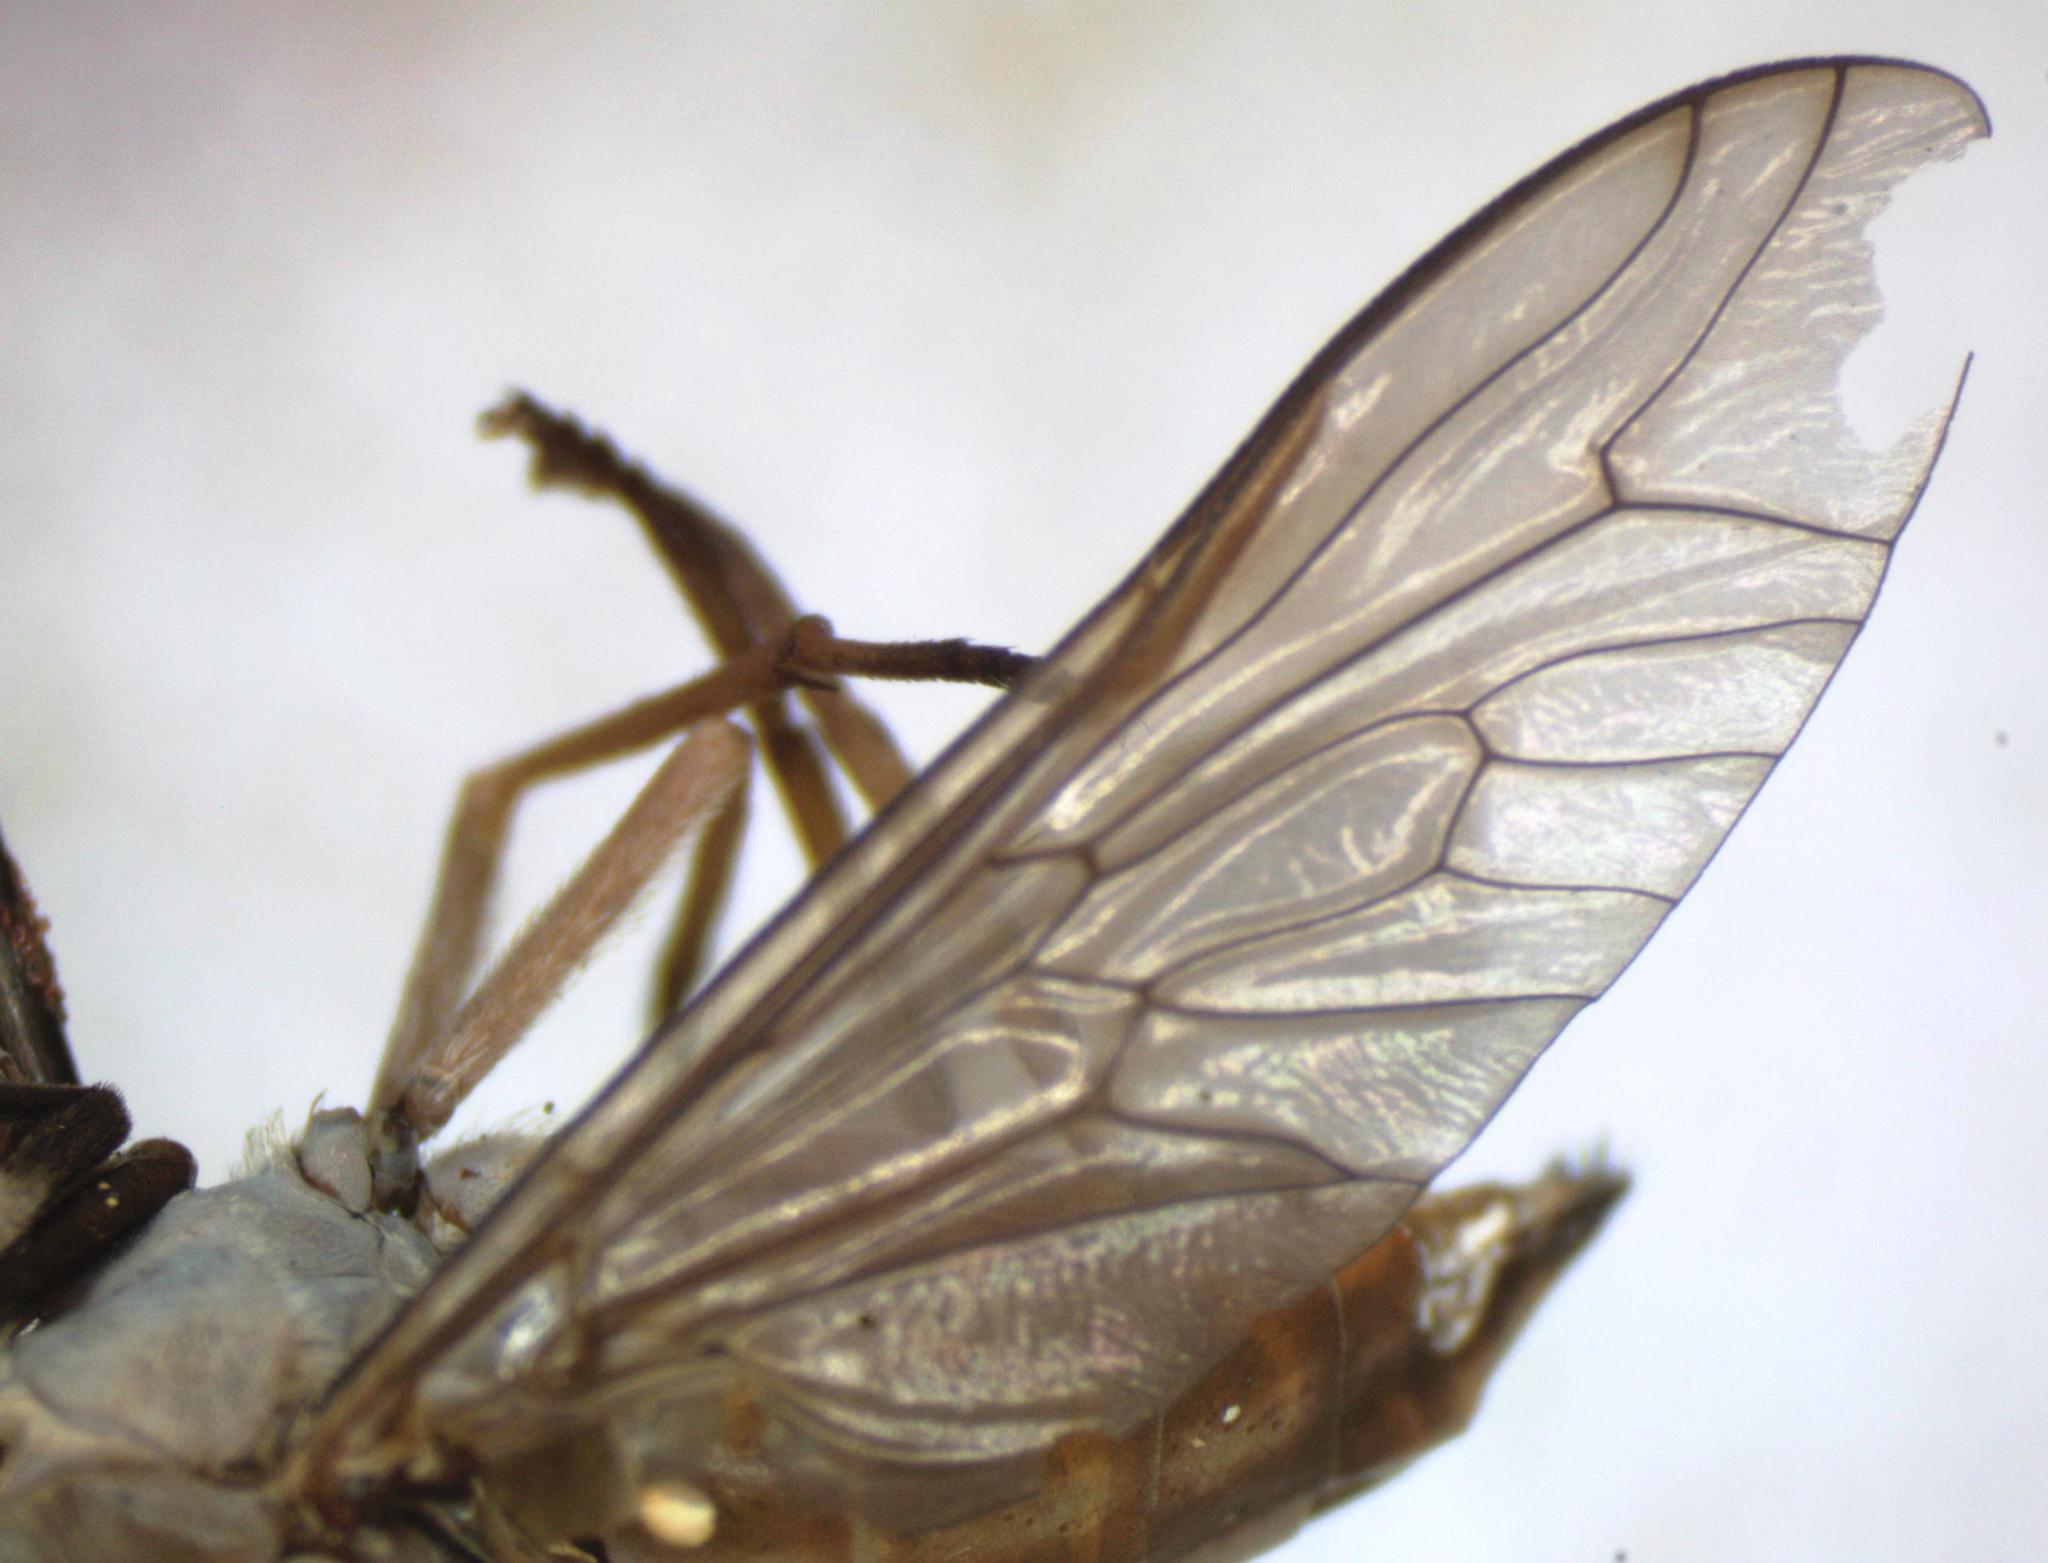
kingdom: Animalia
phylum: Arthropoda
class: Insecta
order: Diptera
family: Tabanidae
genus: Tabanus
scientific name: Tabanus occidentalis
